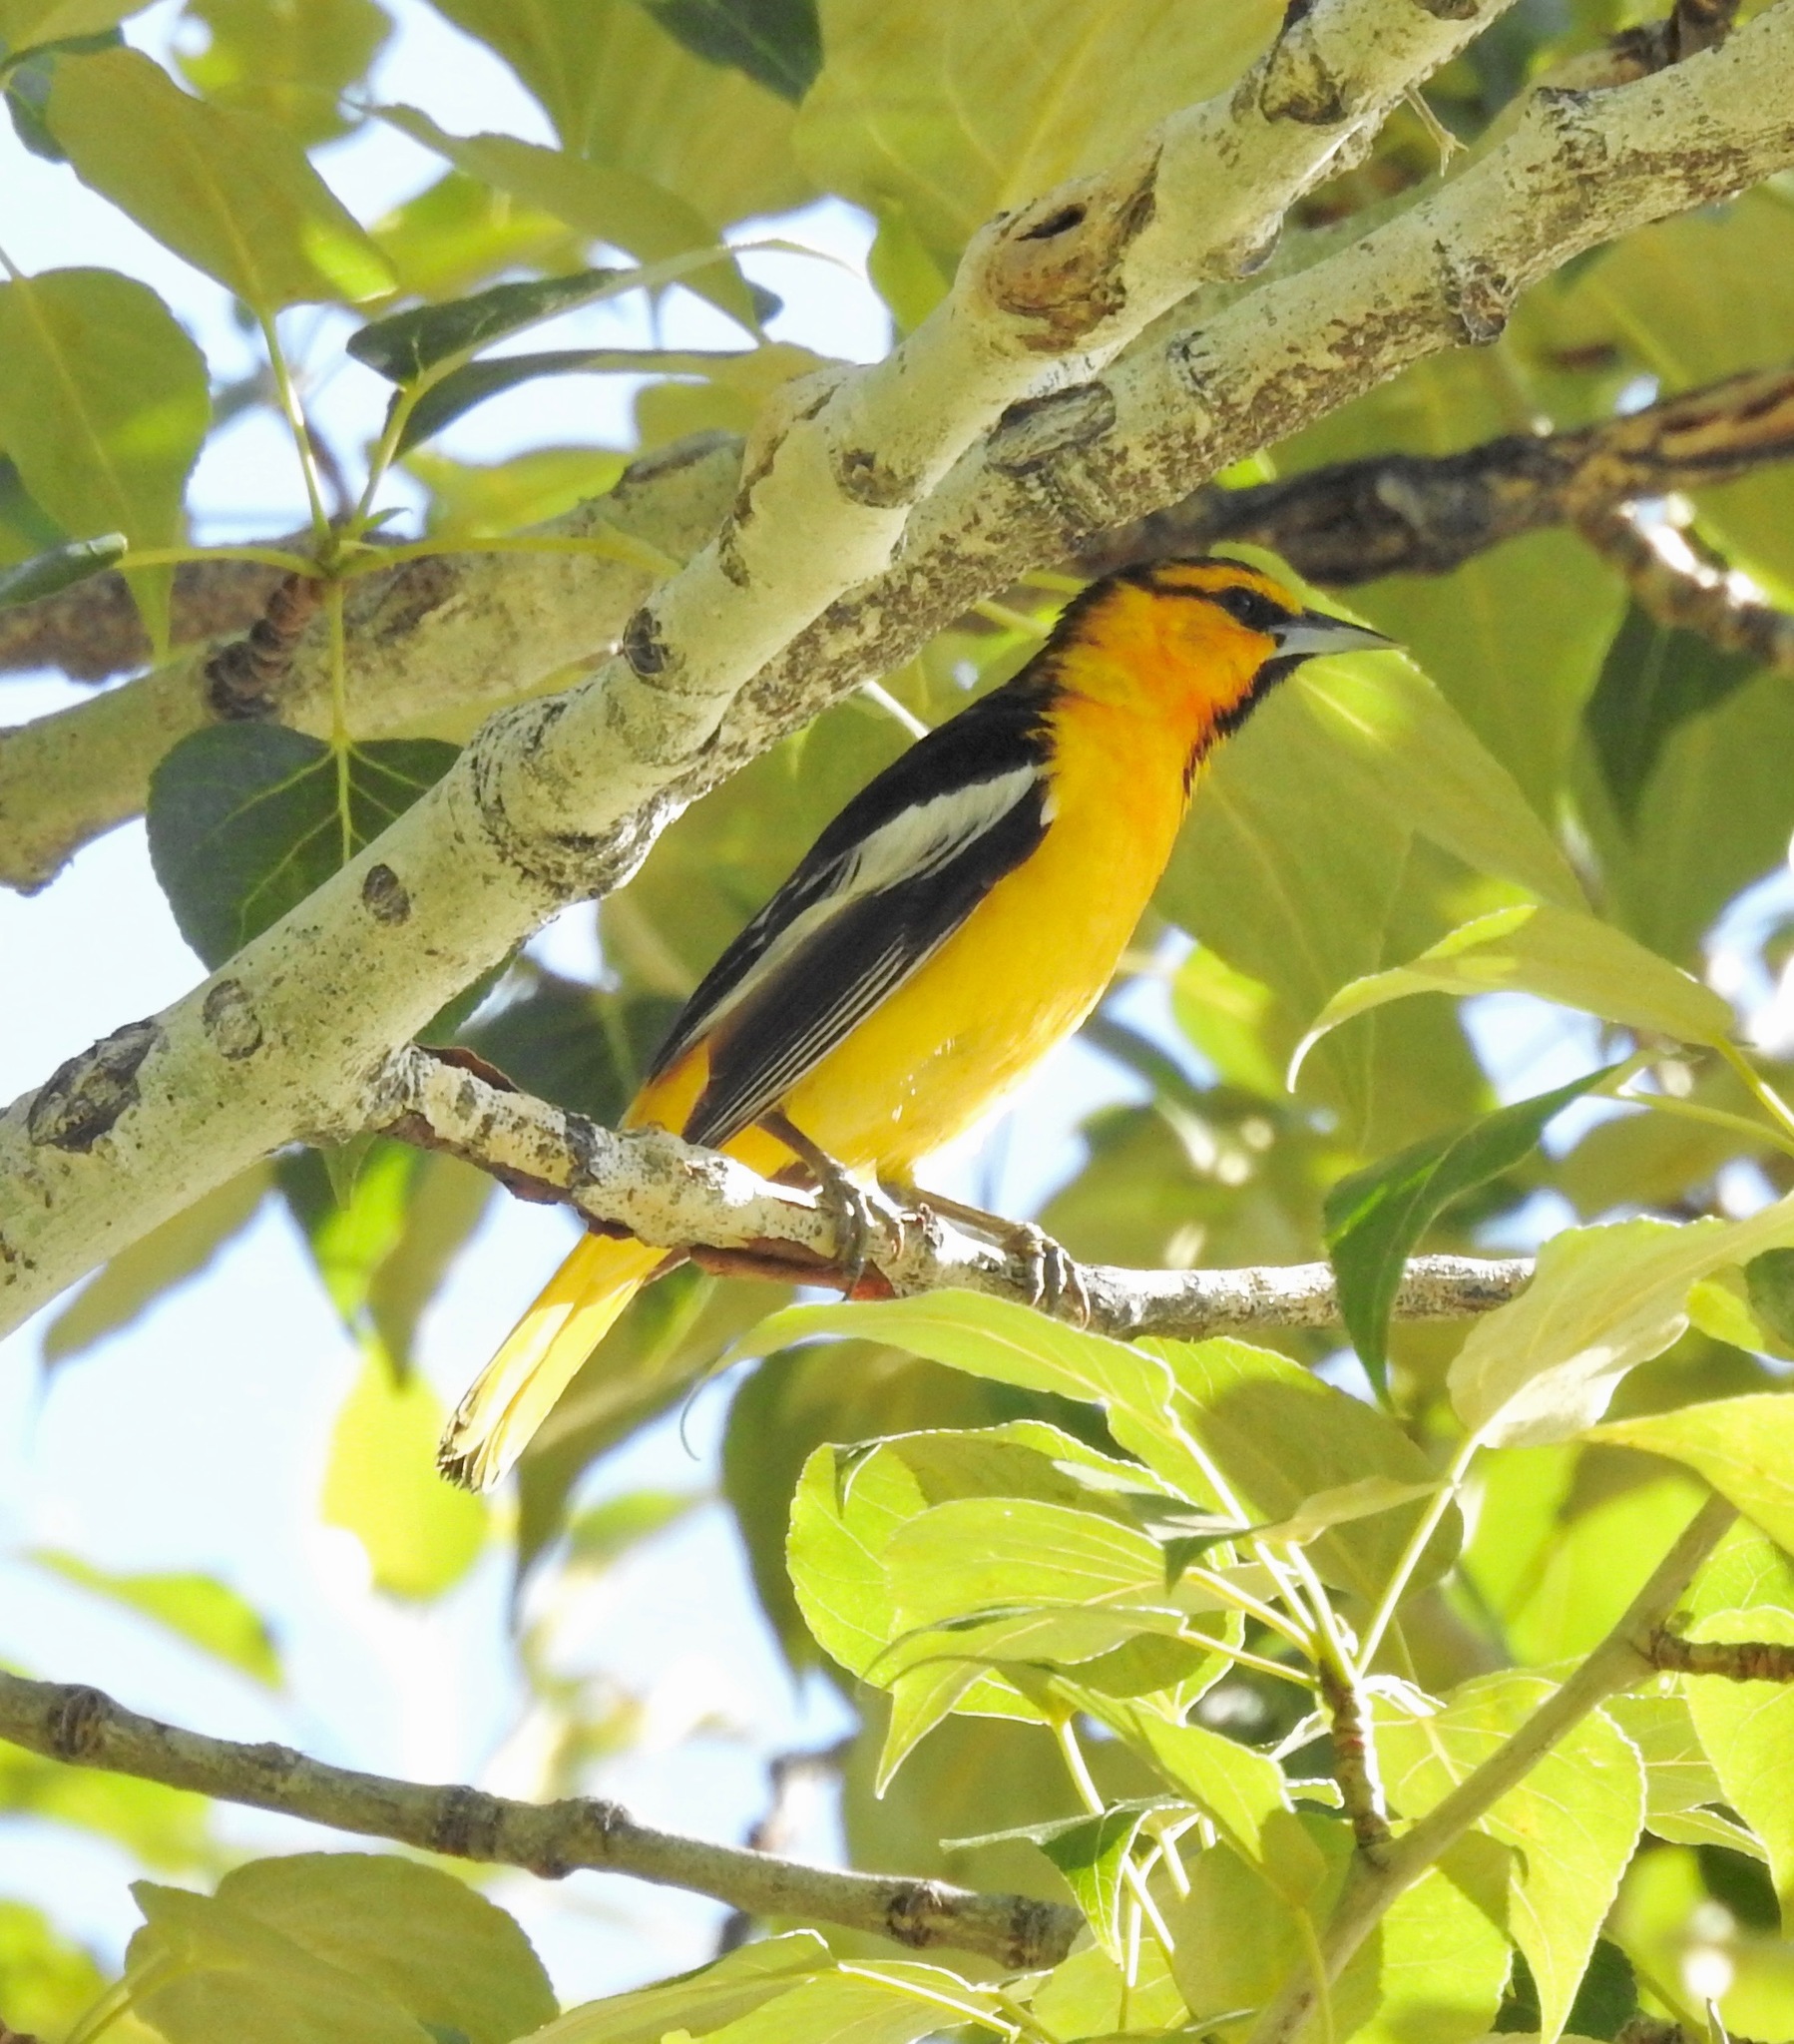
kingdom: Animalia
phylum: Chordata
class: Aves
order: Passeriformes
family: Icteridae
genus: Icterus
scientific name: Icterus bullockii
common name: Bullock's oriole
